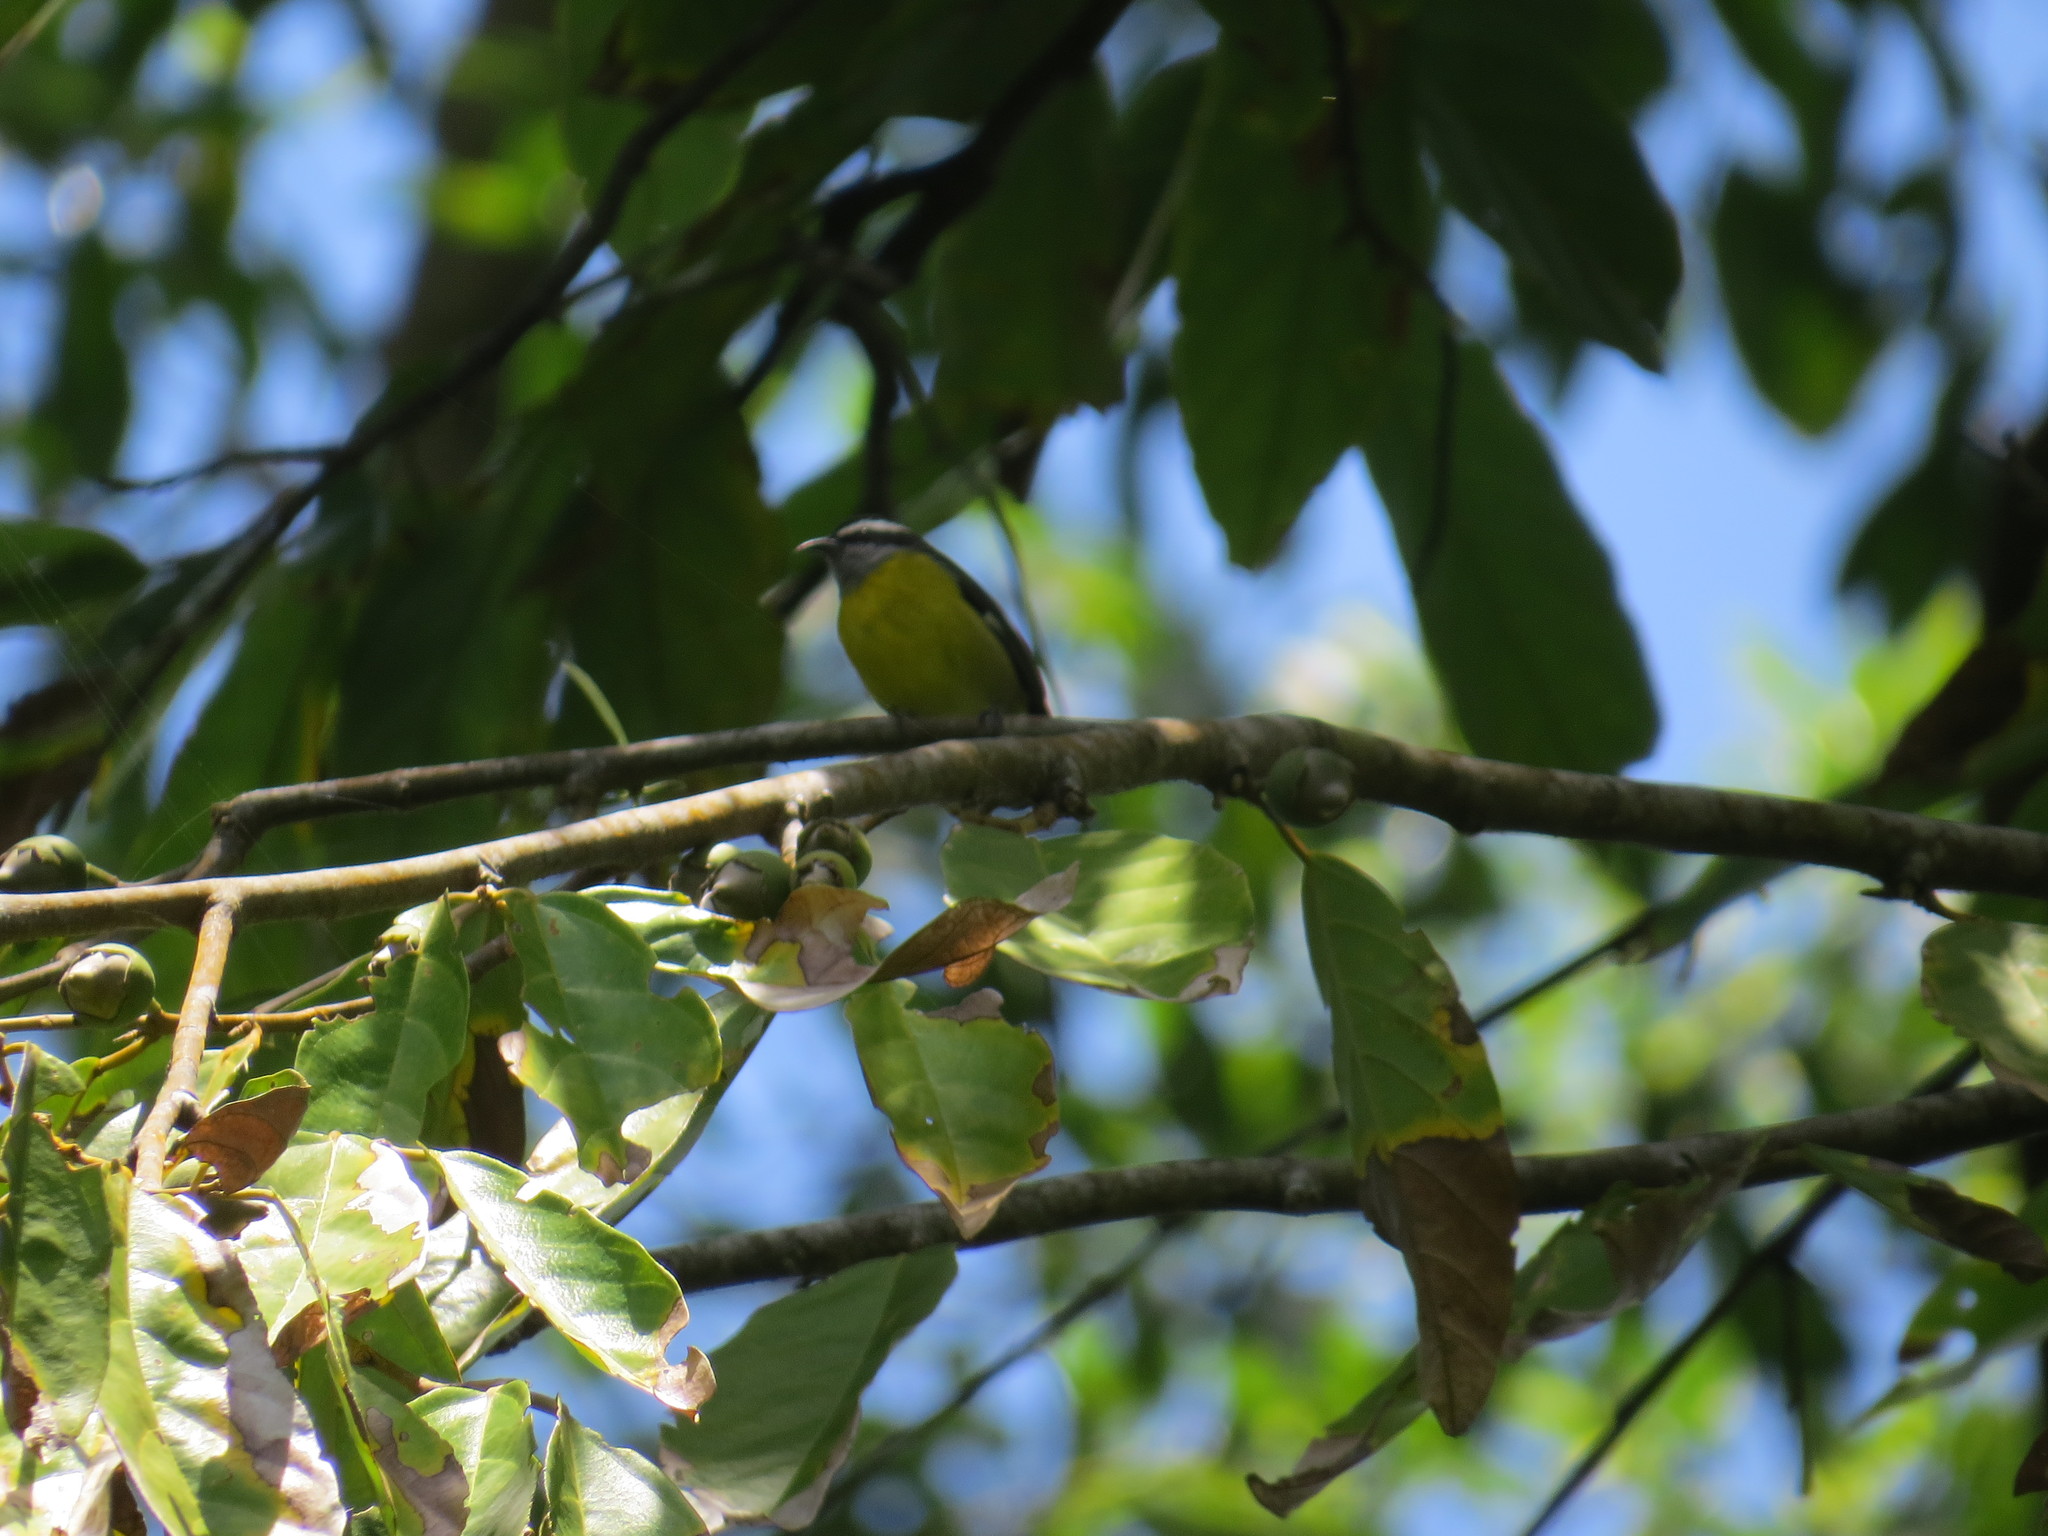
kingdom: Animalia
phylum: Chordata
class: Aves
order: Passeriformes
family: Thraupidae
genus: Coereba
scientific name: Coereba flaveola
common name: Bananaquit
